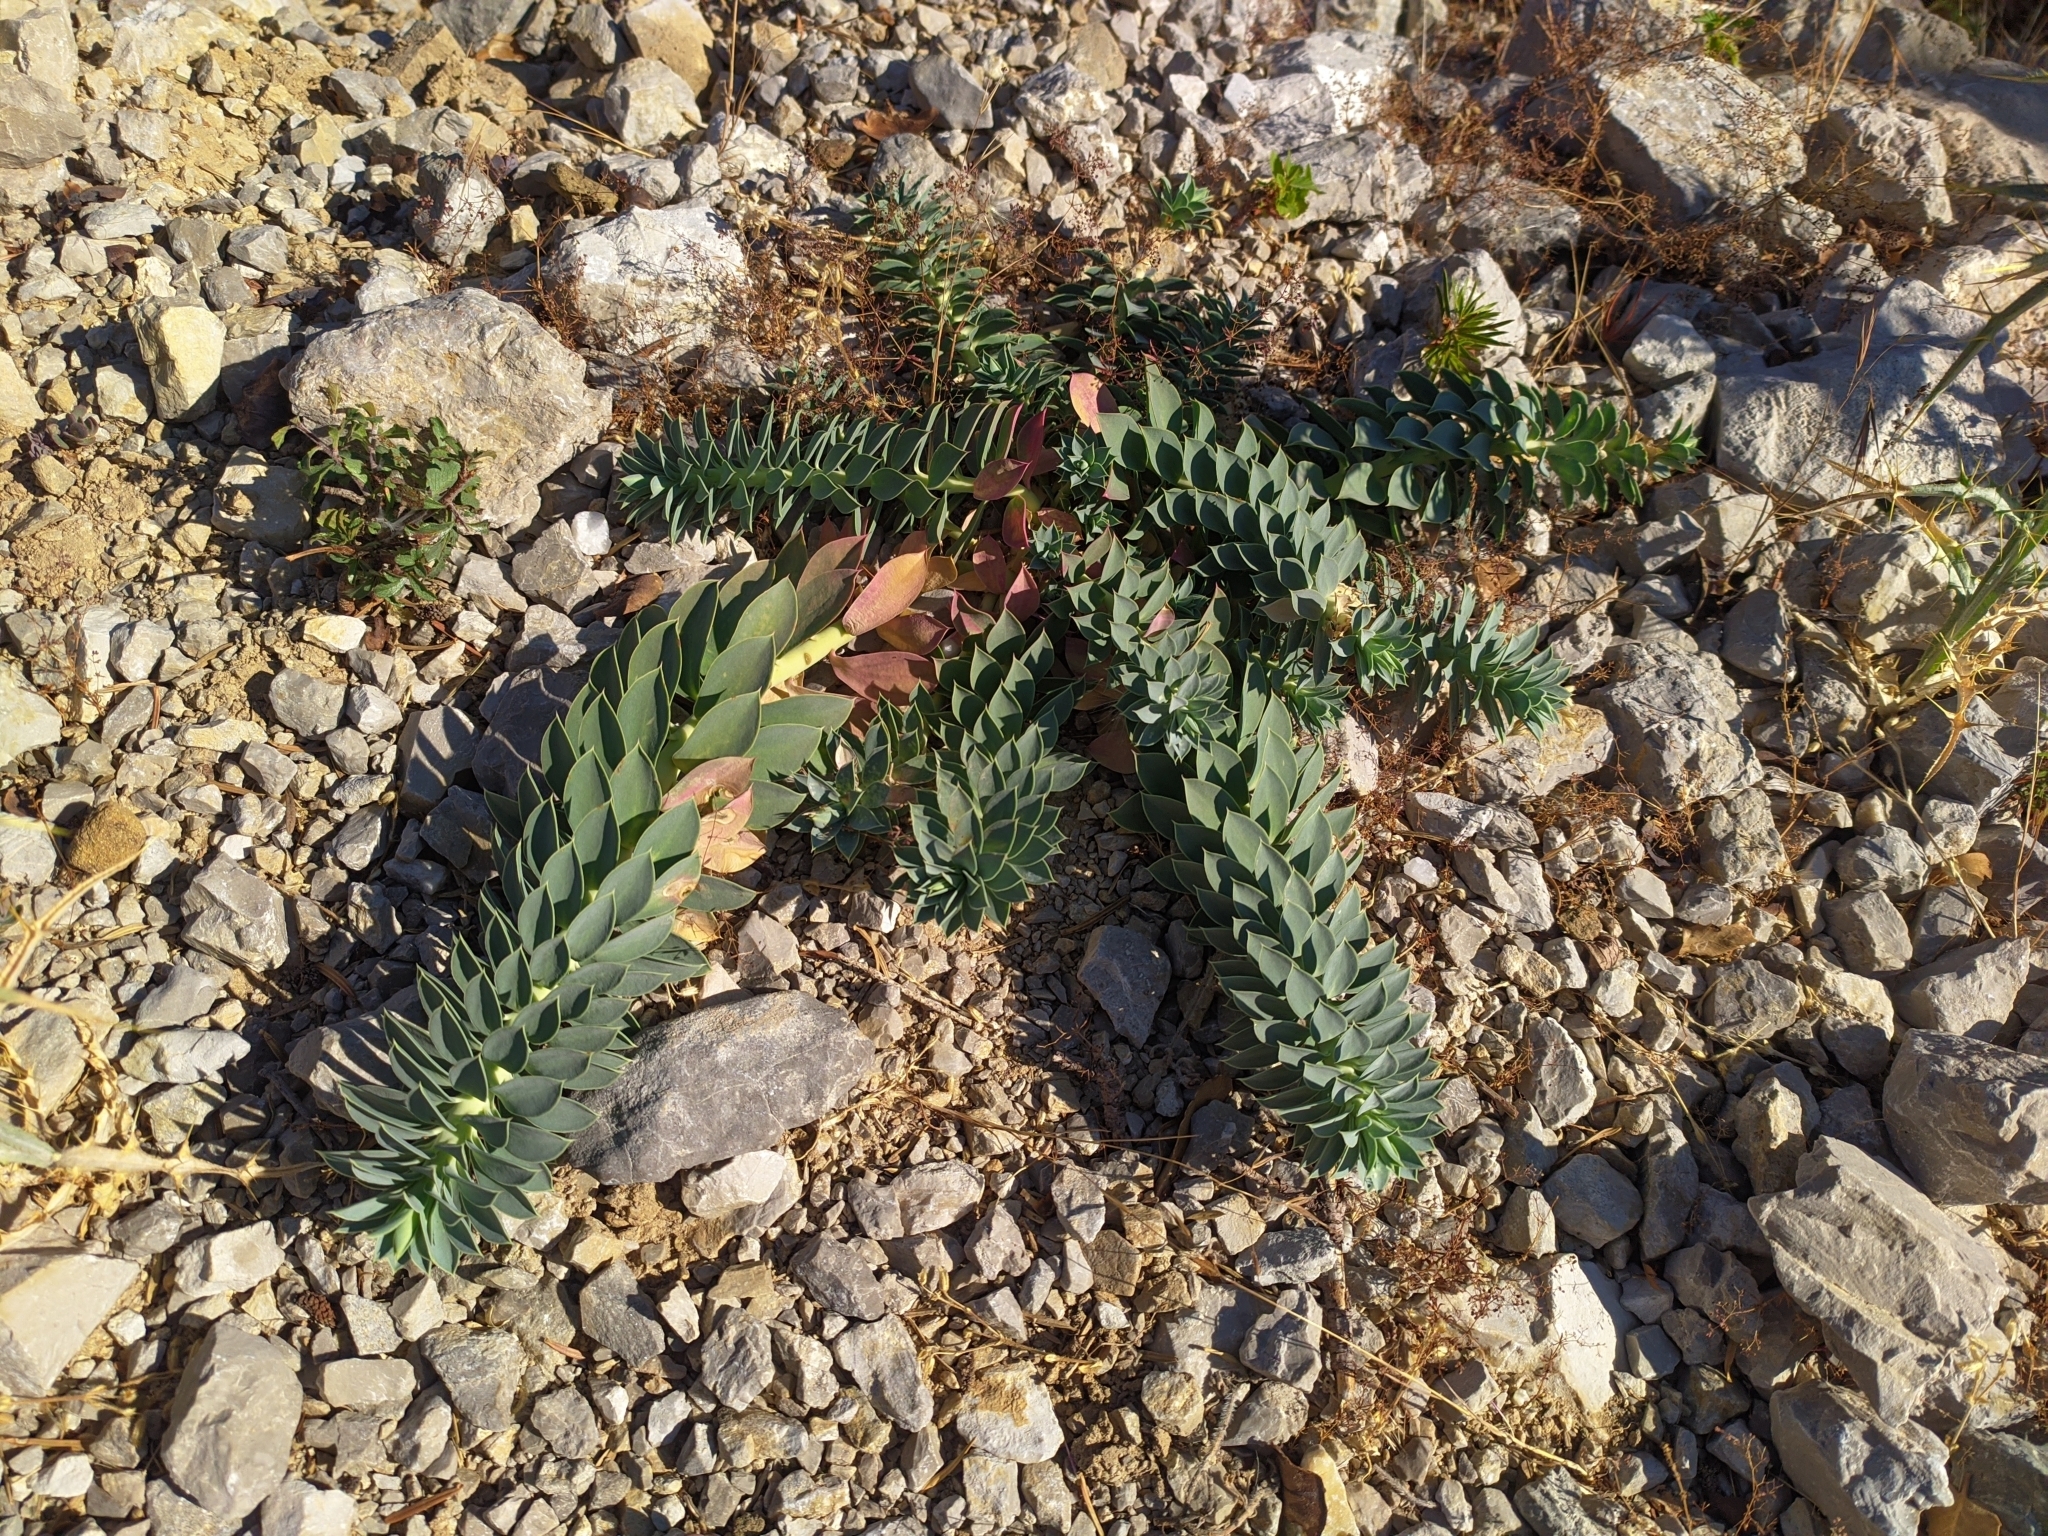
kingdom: Plantae
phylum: Tracheophyta
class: Magnoliopsida
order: Malpighiales
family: Euphorbiaceae
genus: Euphorbia
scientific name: Euphorbia myrsinites
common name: Myrtle spurge
